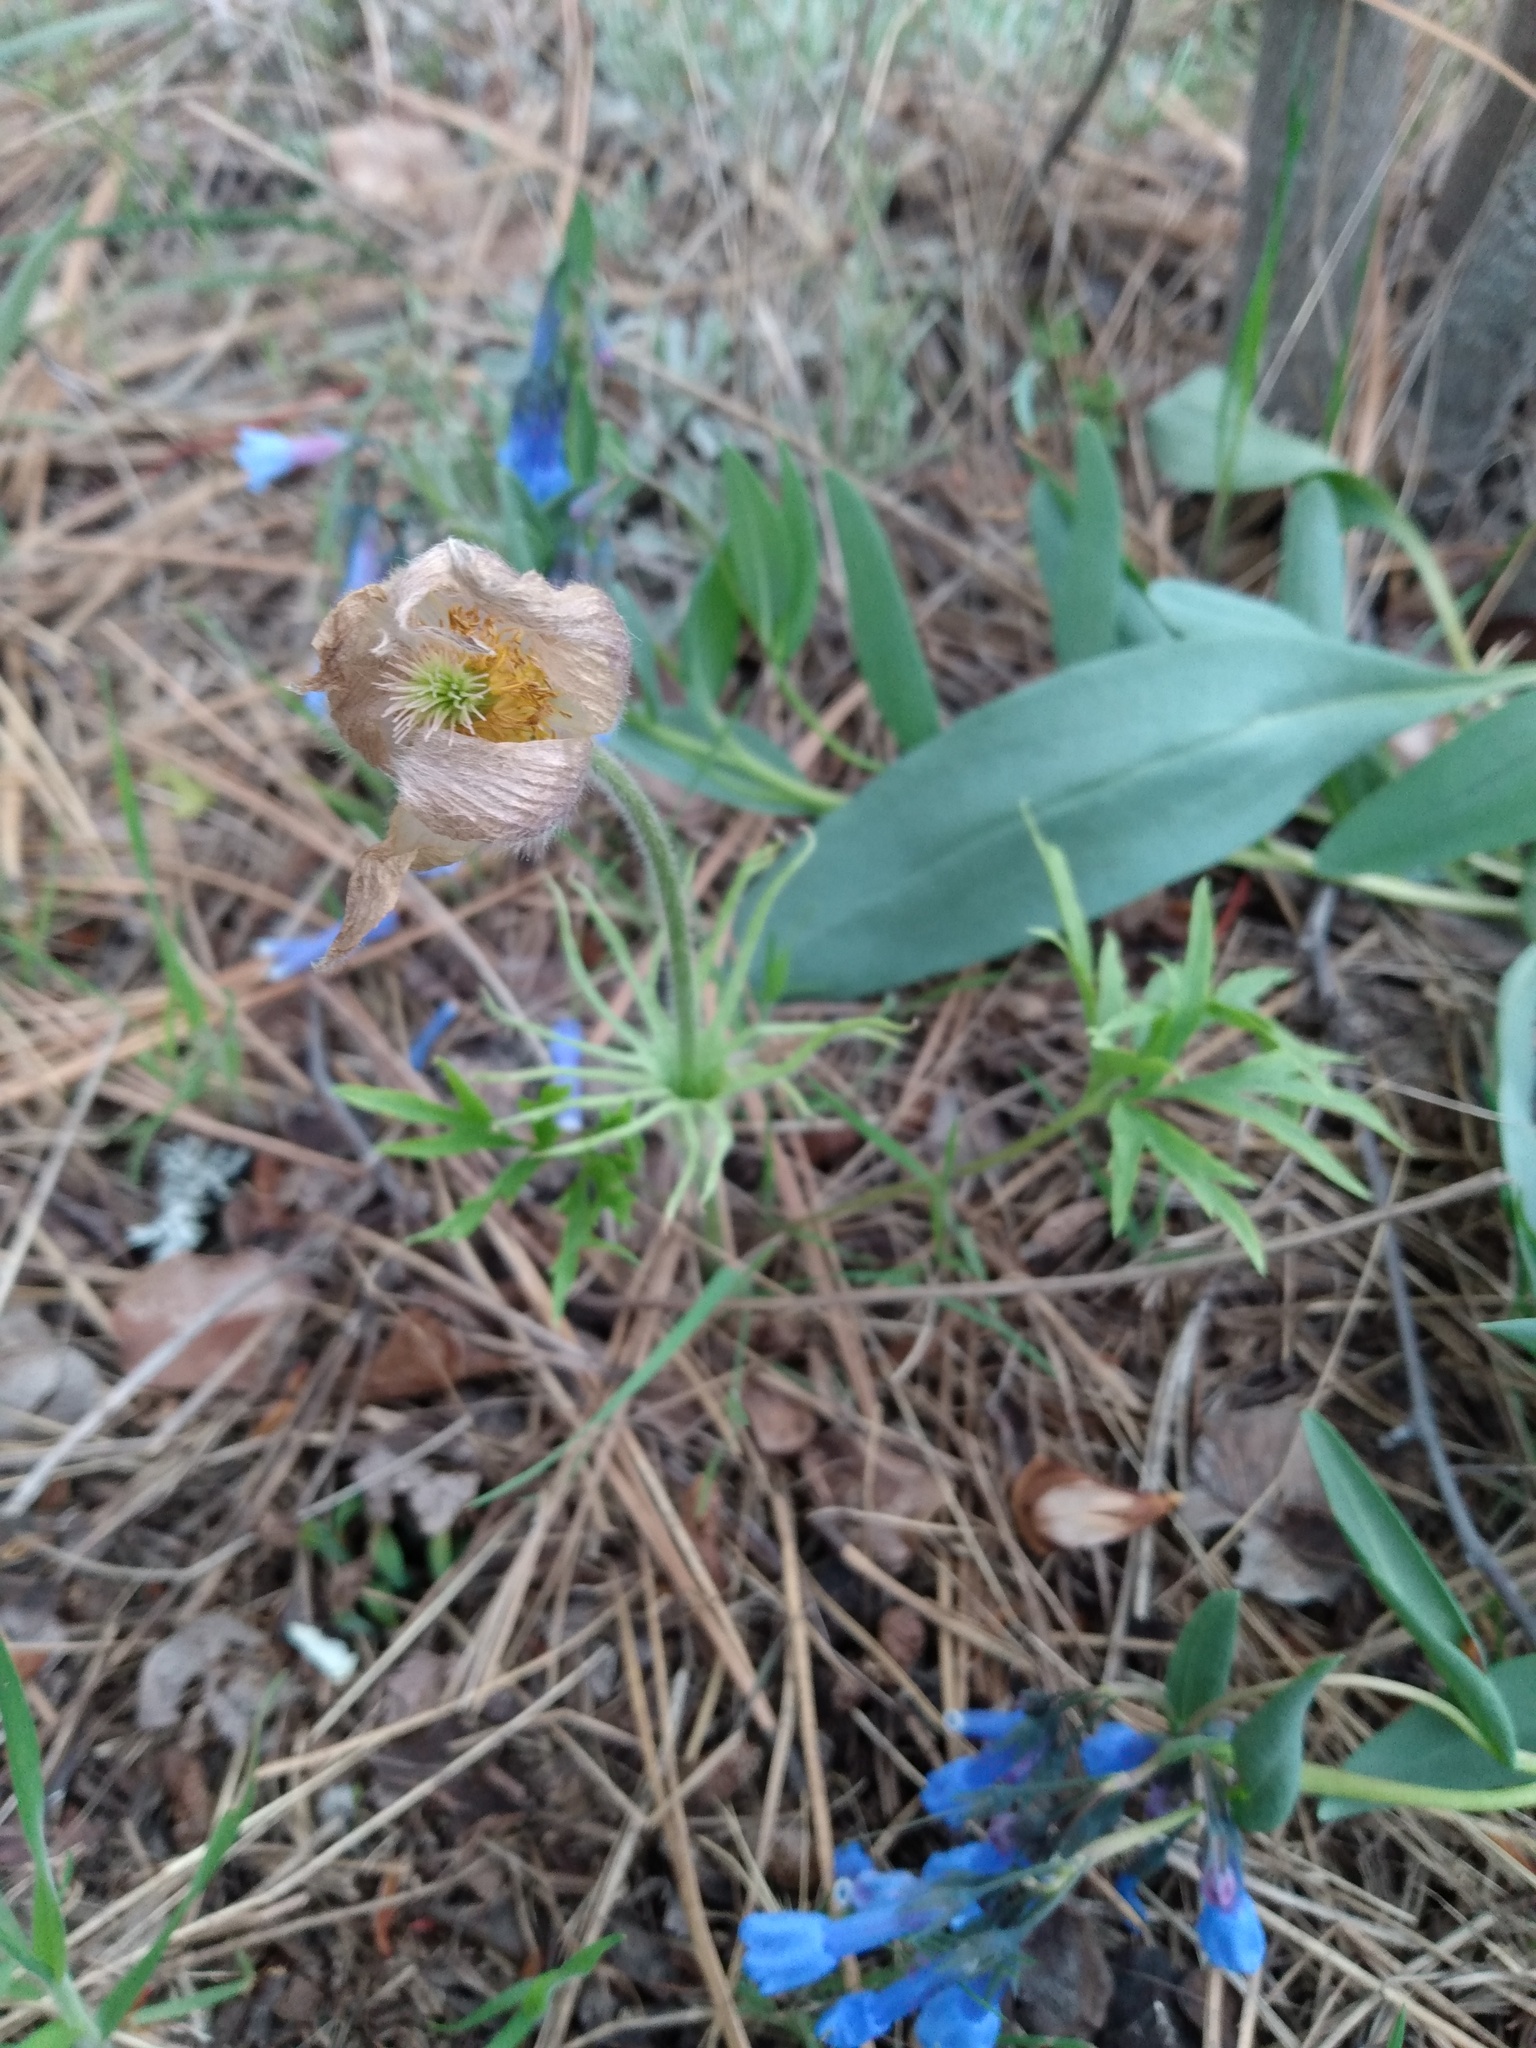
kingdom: Plantae
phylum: Tracheophyta
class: Magnoliopsida
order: Ranunculales
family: Ranunculaceae
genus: Pulsatilla
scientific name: Pulsatilla nuttalliana
